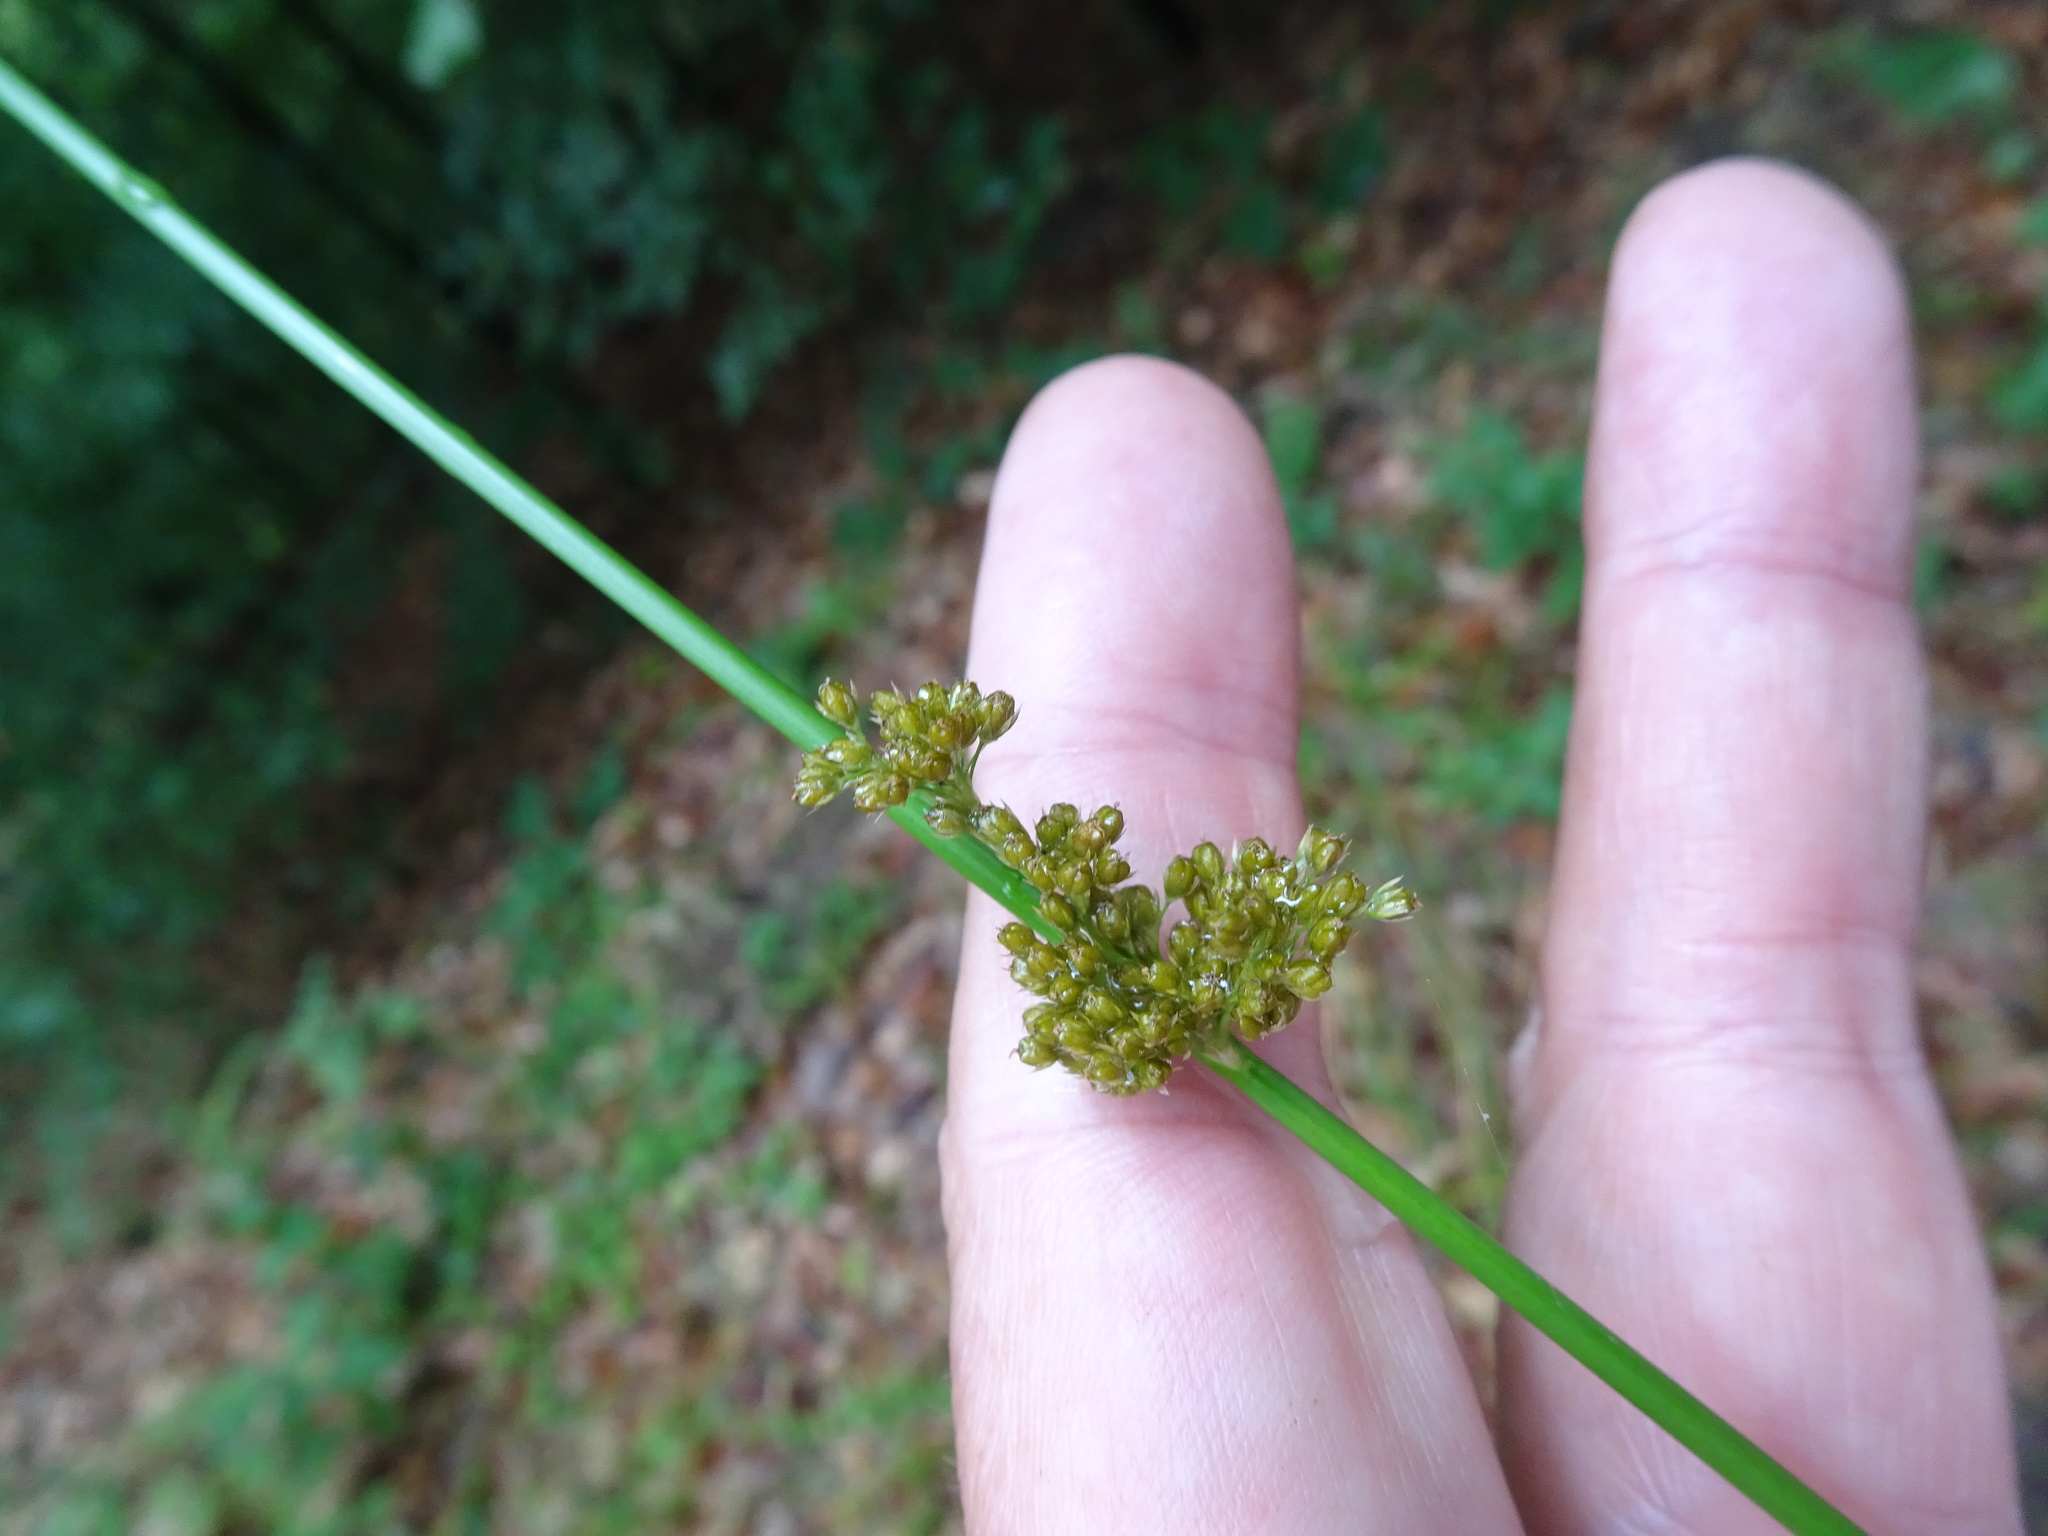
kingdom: Plantae
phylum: Tracheophyta
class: Liliopsida
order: Poales
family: Juncaceae
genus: Juncus
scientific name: Juncus effusus
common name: Soft rush
